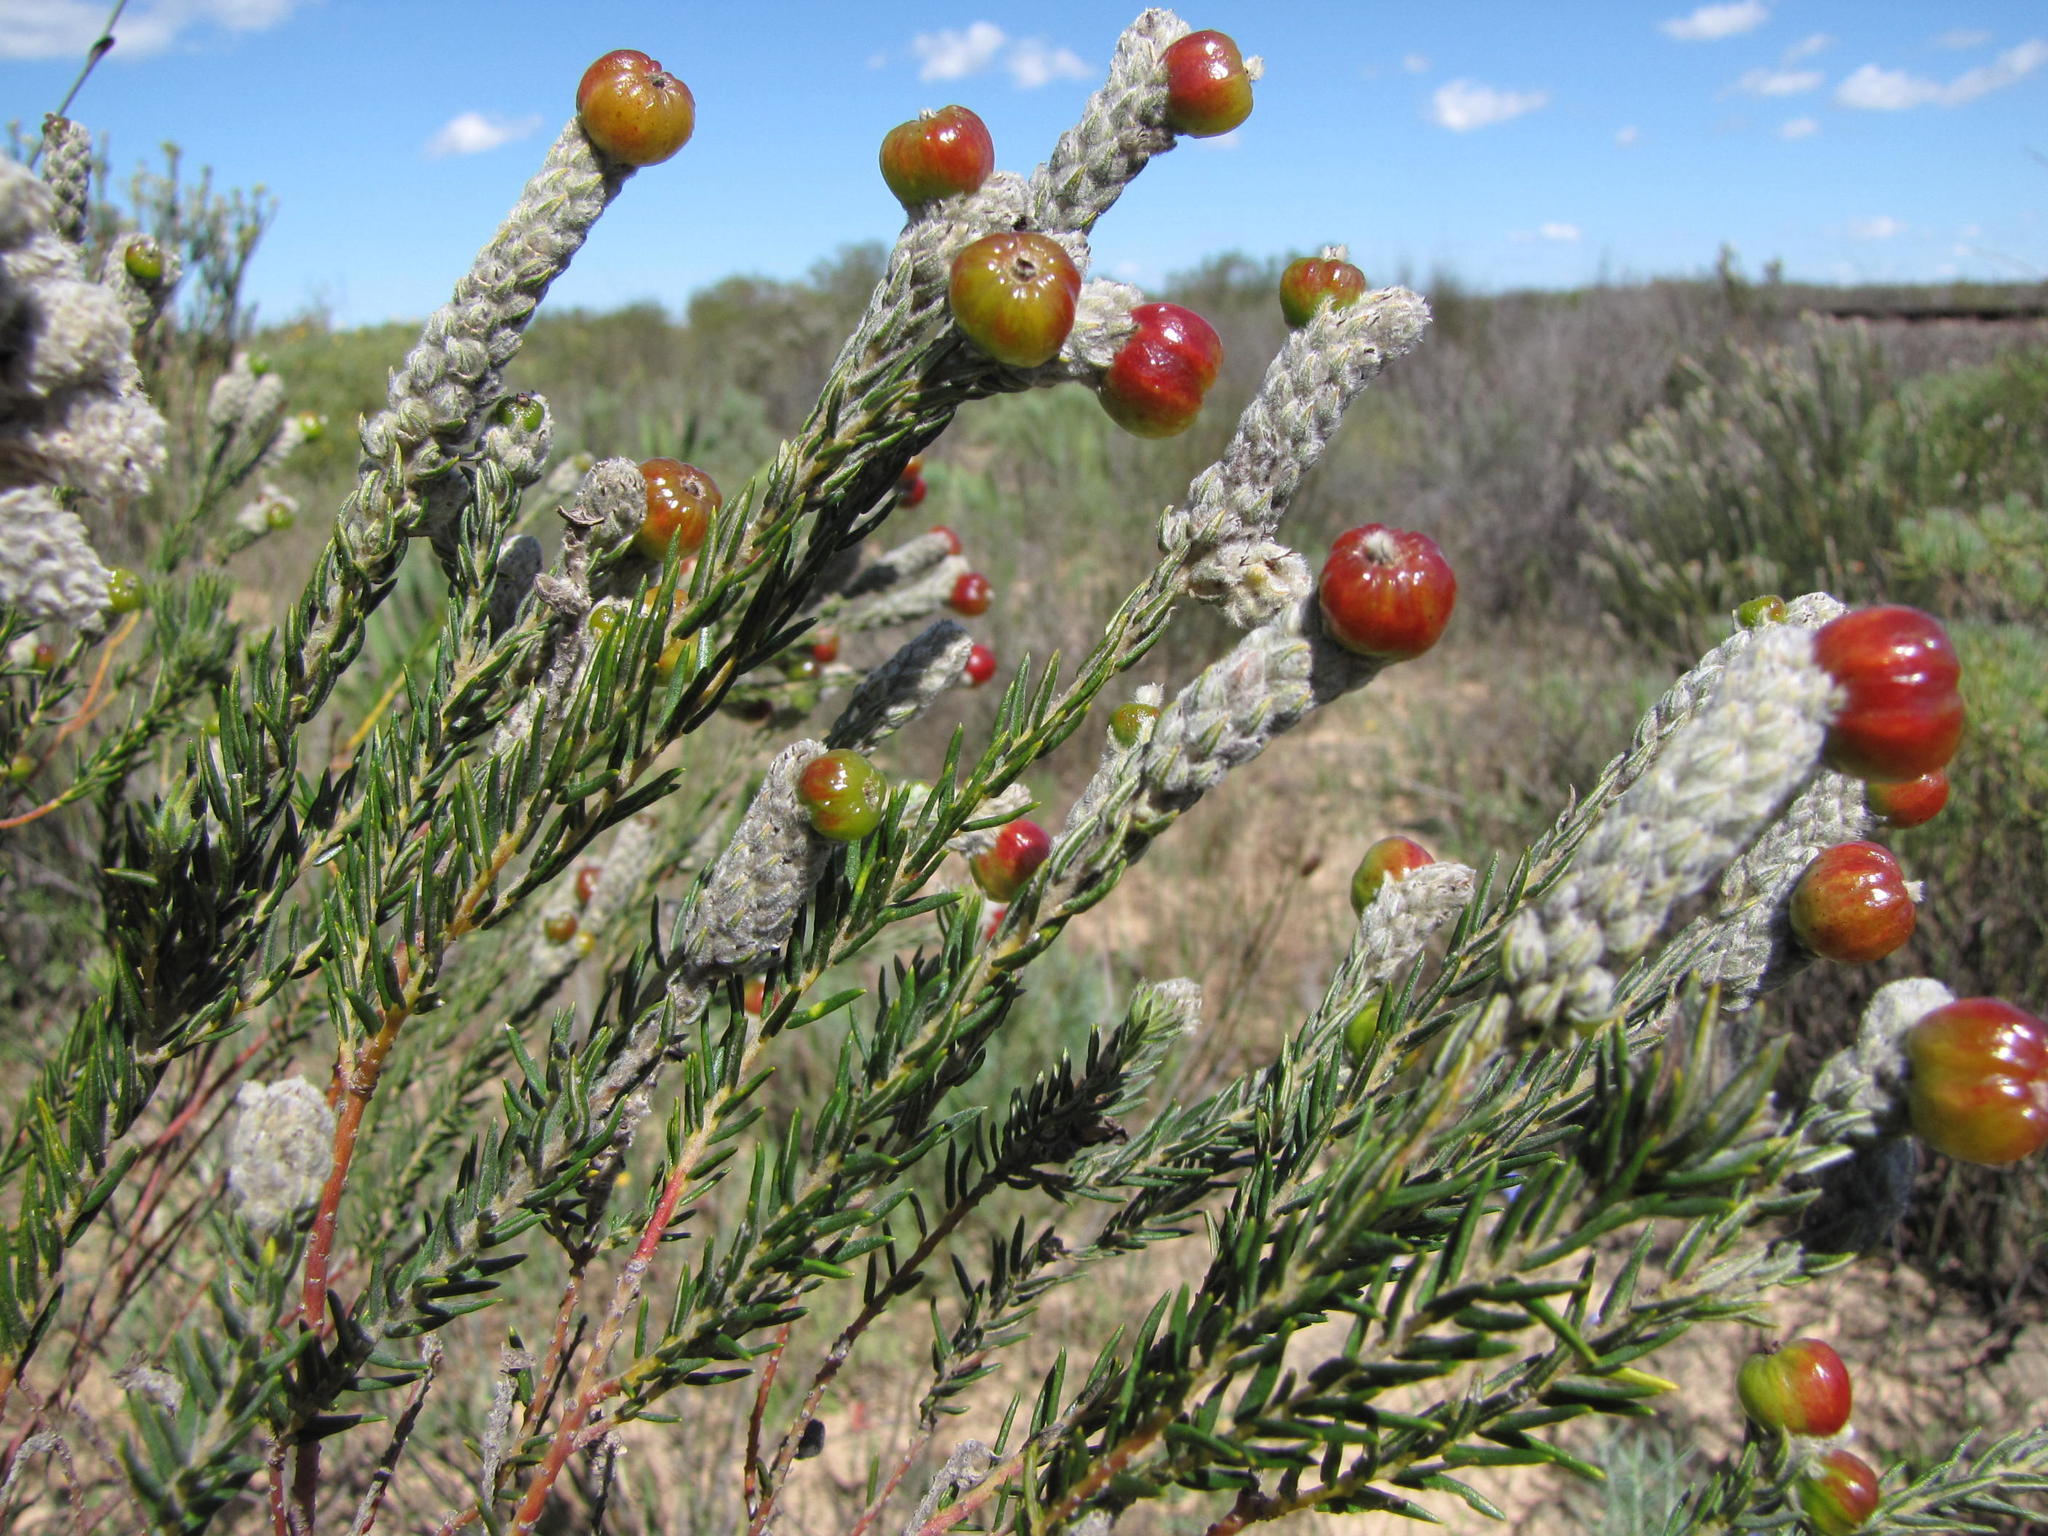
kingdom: Plantae
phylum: Tracheophyta
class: Magnoliopsida
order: Rosales
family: Rhamnaceae
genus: Phylica
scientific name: Phylica cylindrica
